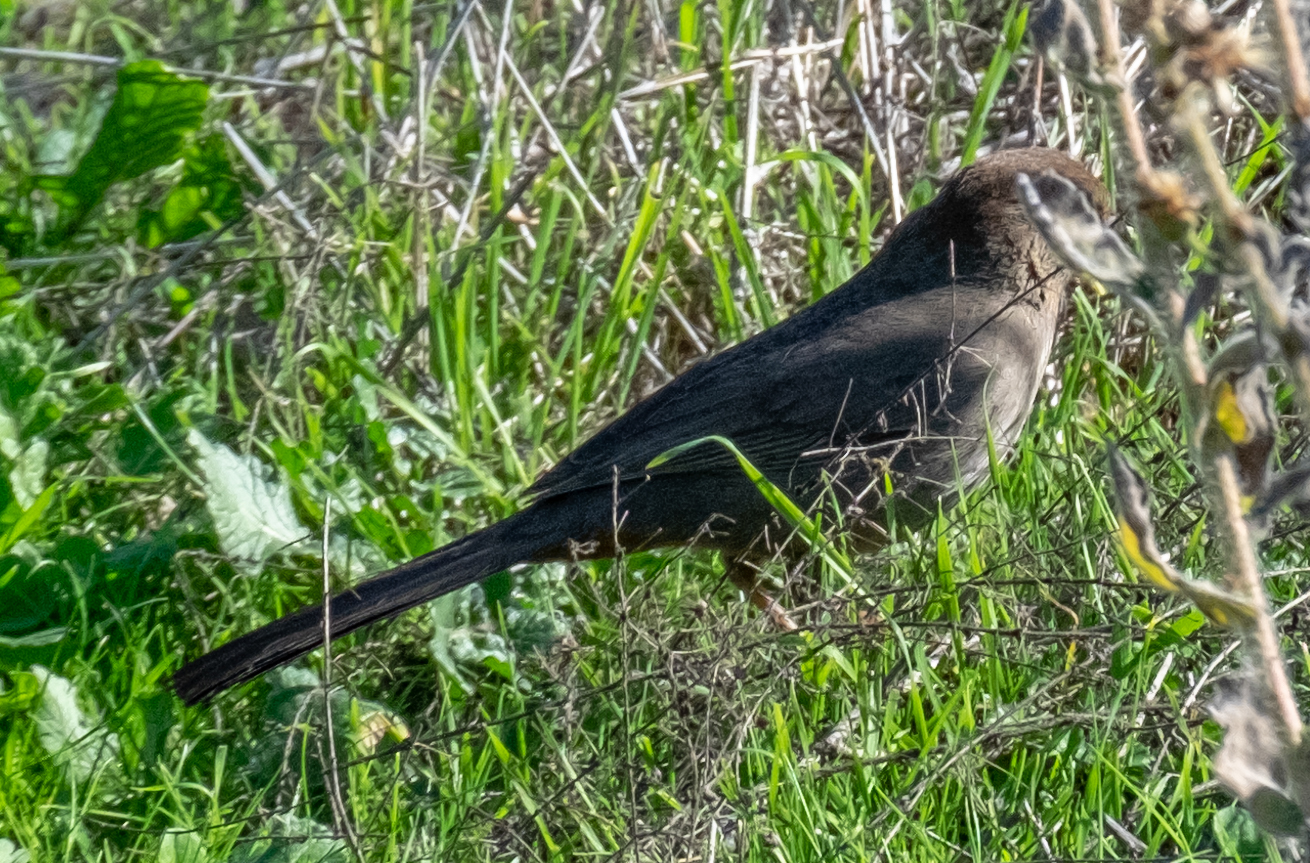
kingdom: Animalia
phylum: Chordata
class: Aves
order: Passeriformes
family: Passerellidae
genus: Melozone
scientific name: Melozone crissalis
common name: California towhee
